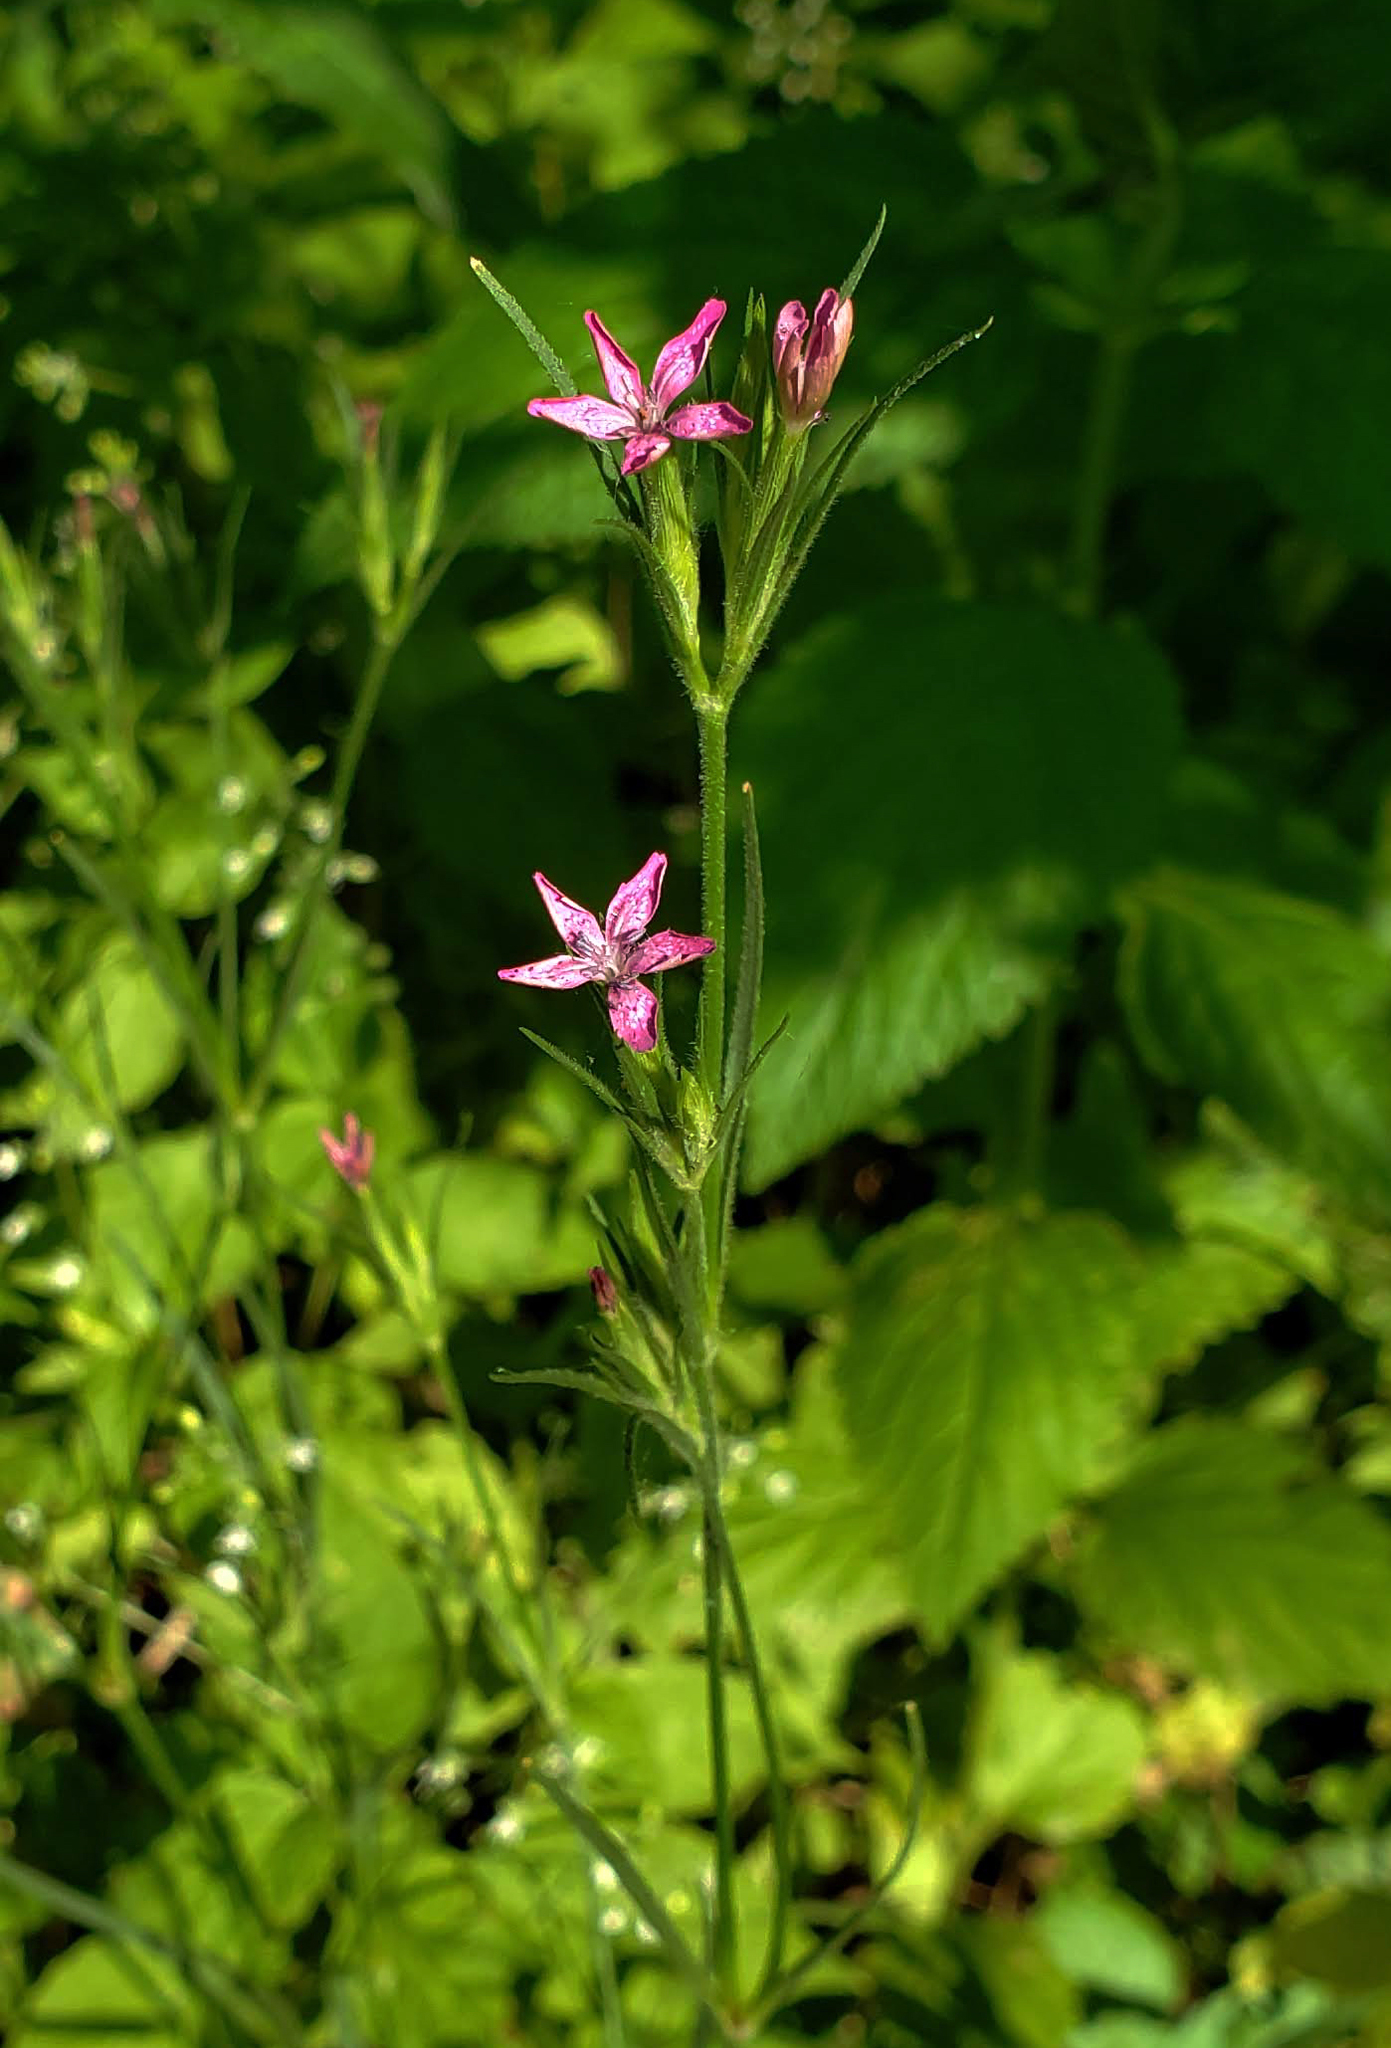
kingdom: Plantae
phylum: Tracheophyta
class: Magnoliopsida
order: Caryophyllales
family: Caryophyllaceae
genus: Dianthus
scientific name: Dianthus armeria
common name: Deptford pink
